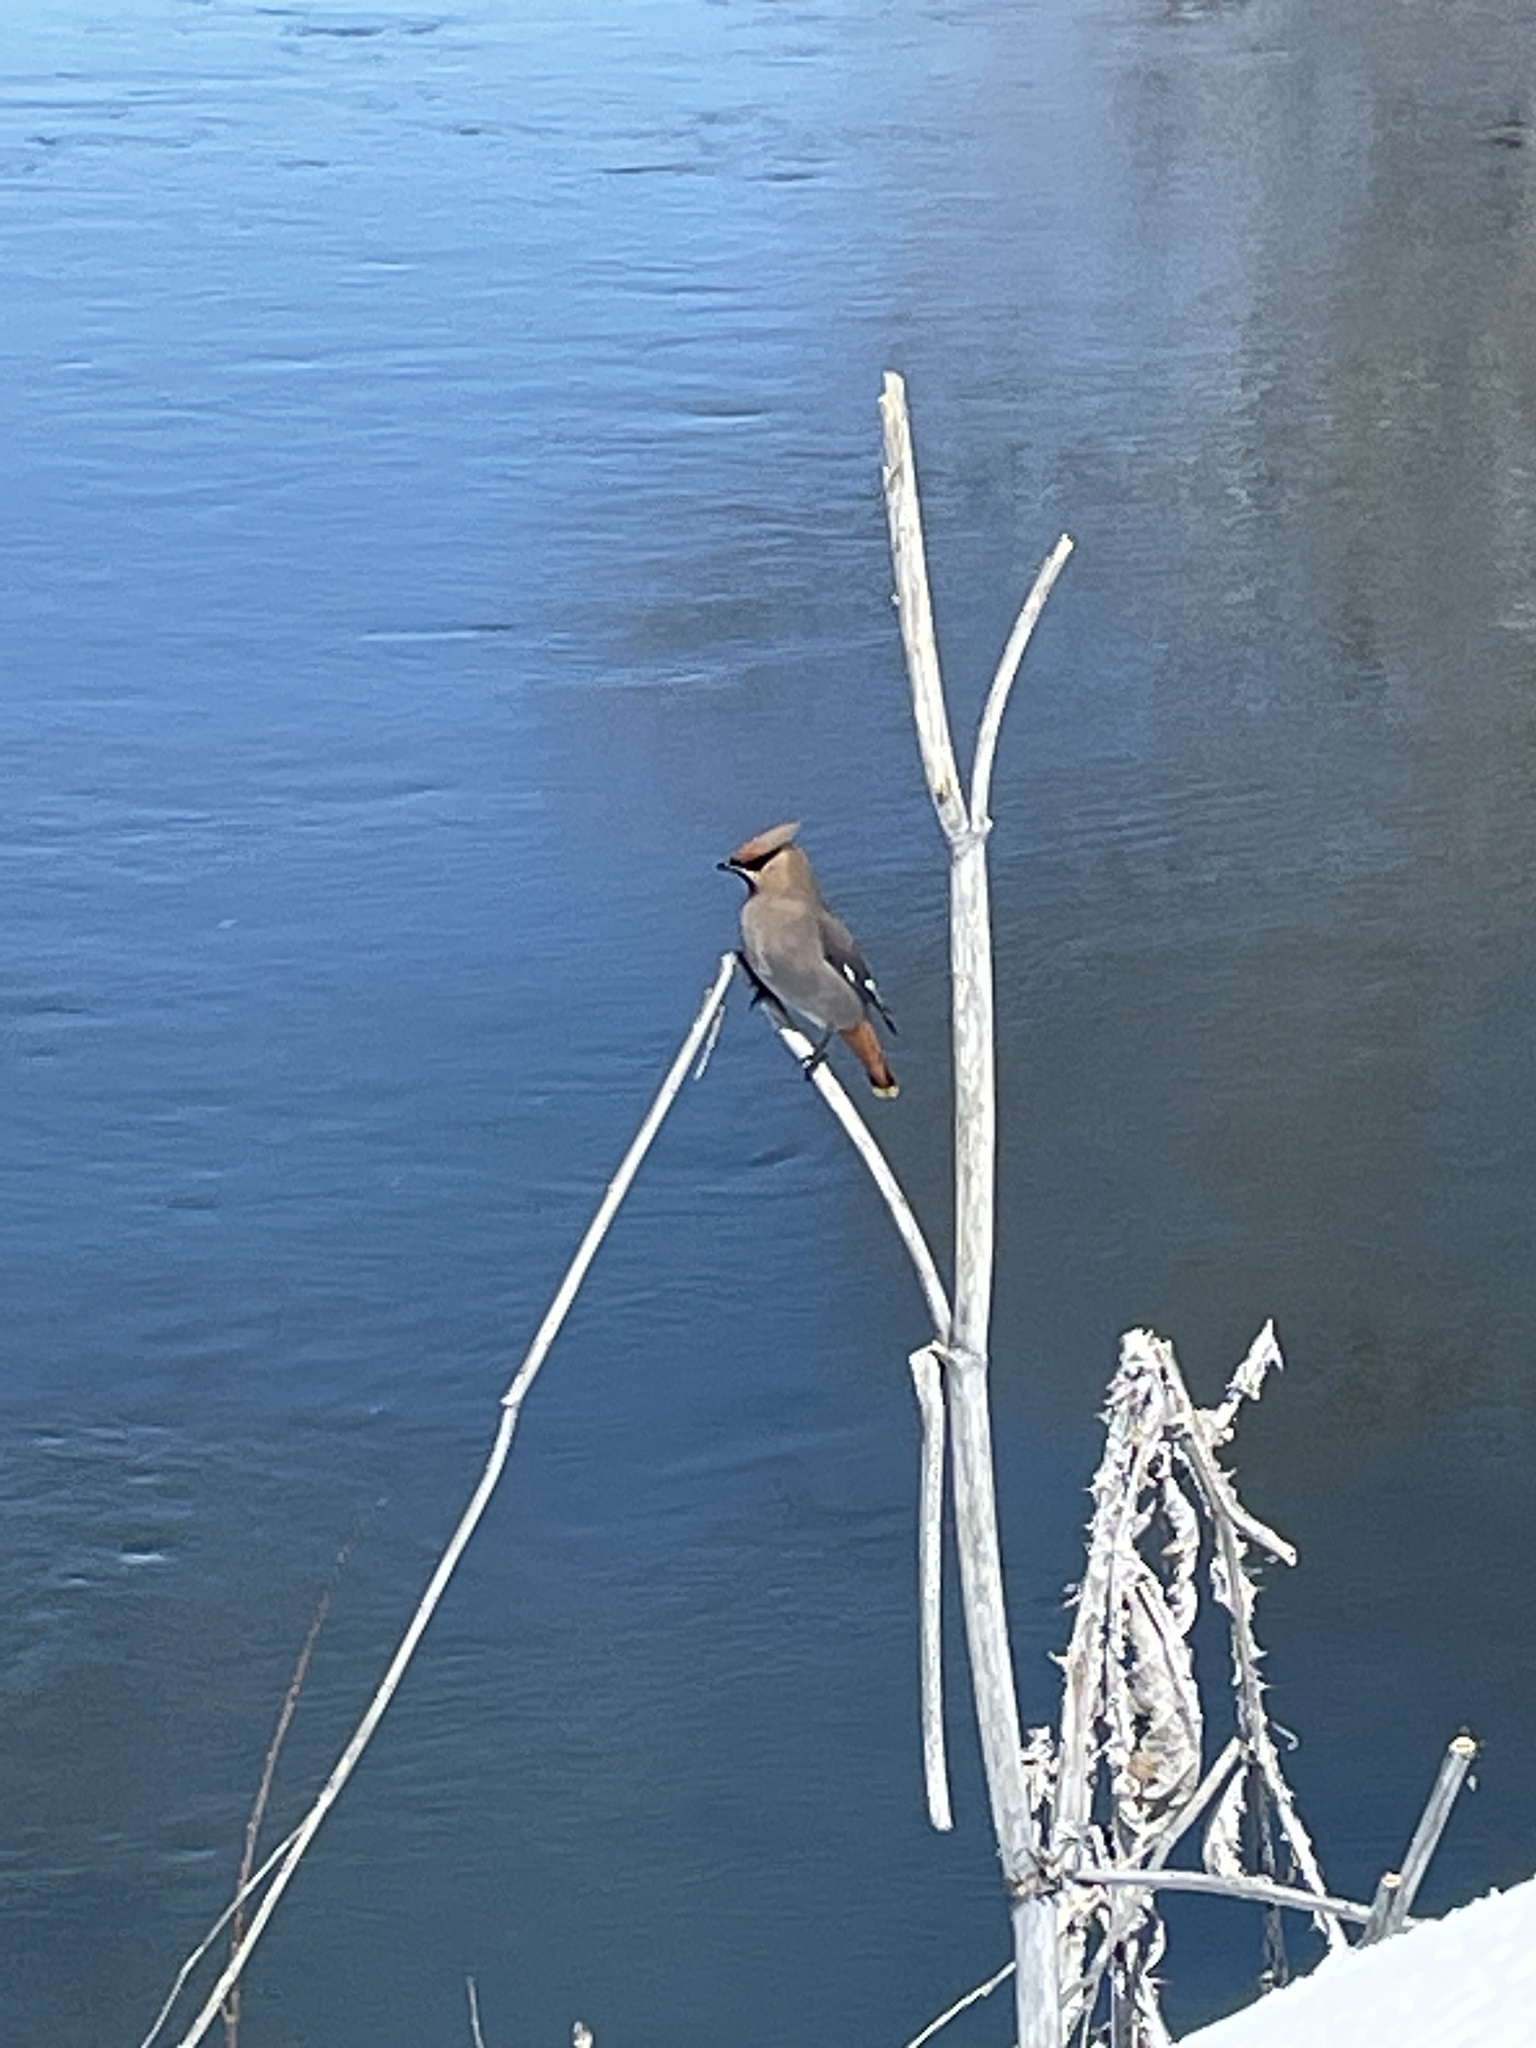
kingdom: Animalia
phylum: Chordata
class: Aves
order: Passeriformes
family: Bombycillidae
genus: Bombycilla
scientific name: Bombycilla garrulus
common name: Bohemian waxwing
